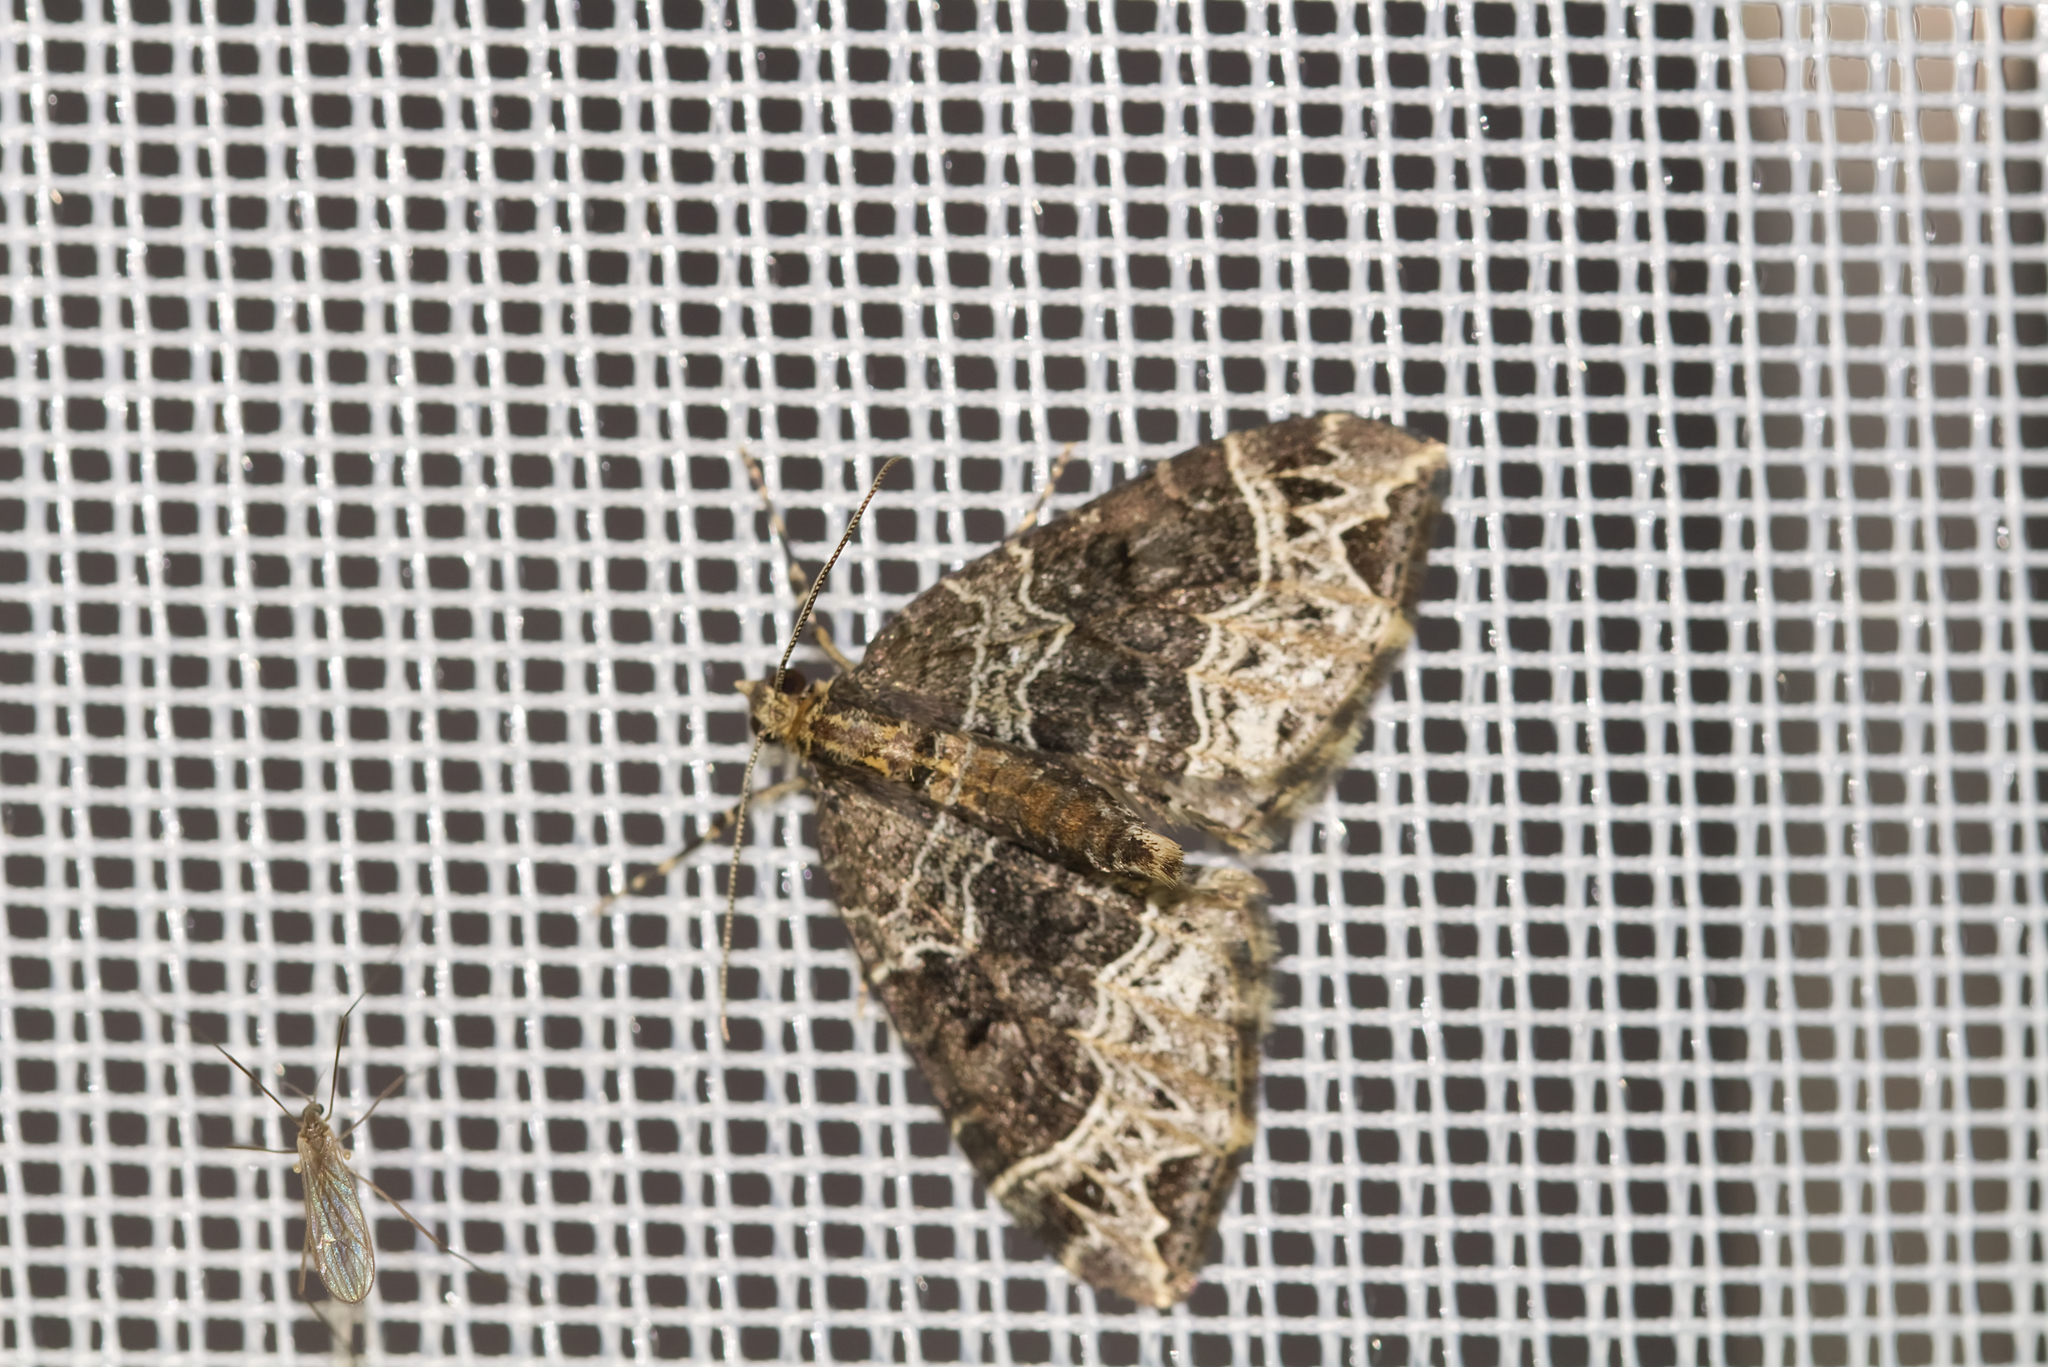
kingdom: Animalia
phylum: Arthropoda
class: Insecta
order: Lepidoptera
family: Geometridae
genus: Ecliptopera
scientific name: Ecliptopera silaceata
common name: Small phoenix
